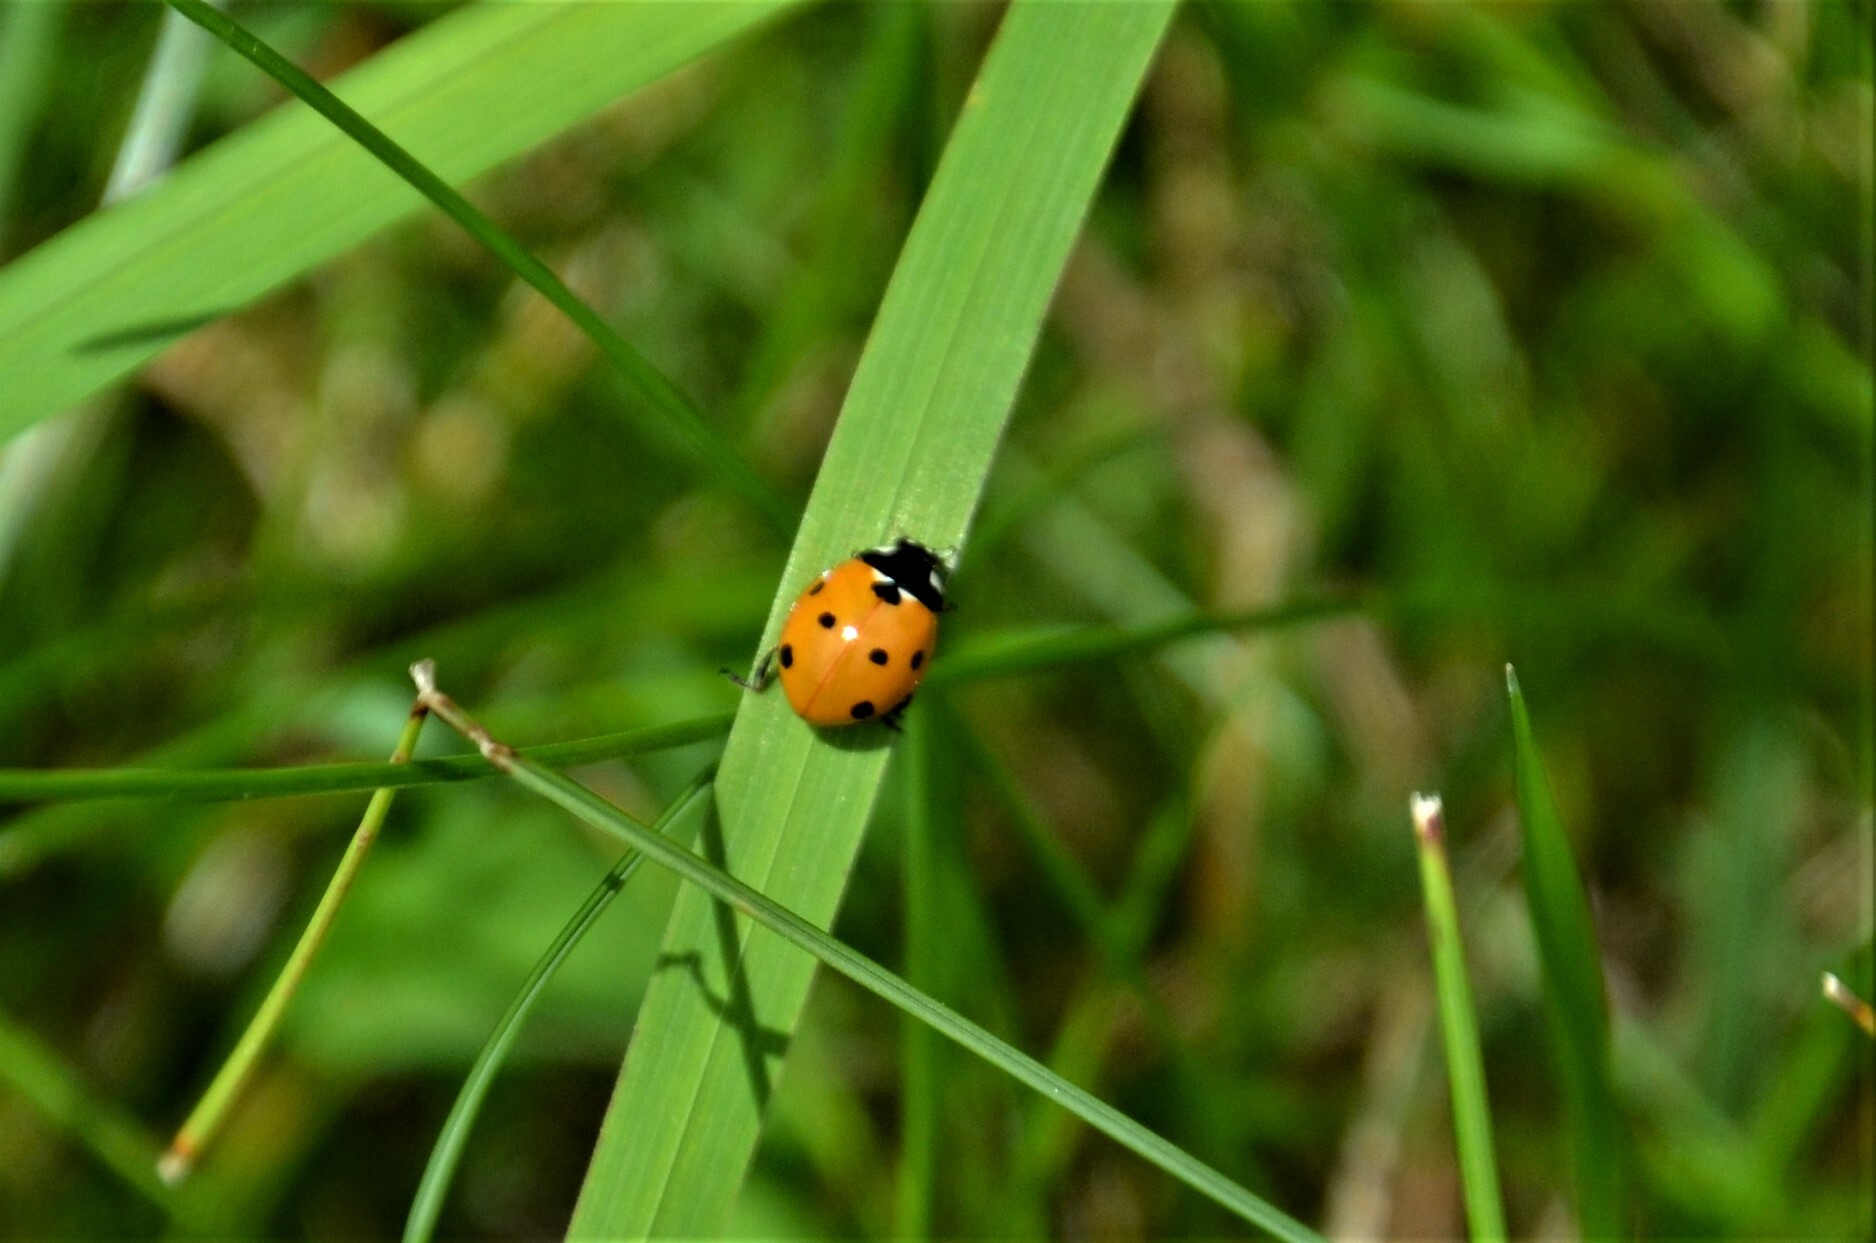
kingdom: Animalia
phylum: Arthropoda
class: Insecta
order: Coleoptera
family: Coccinellidae
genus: Coccinella
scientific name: Coccinella septempunctata
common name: Sevenspotted lady beetle
